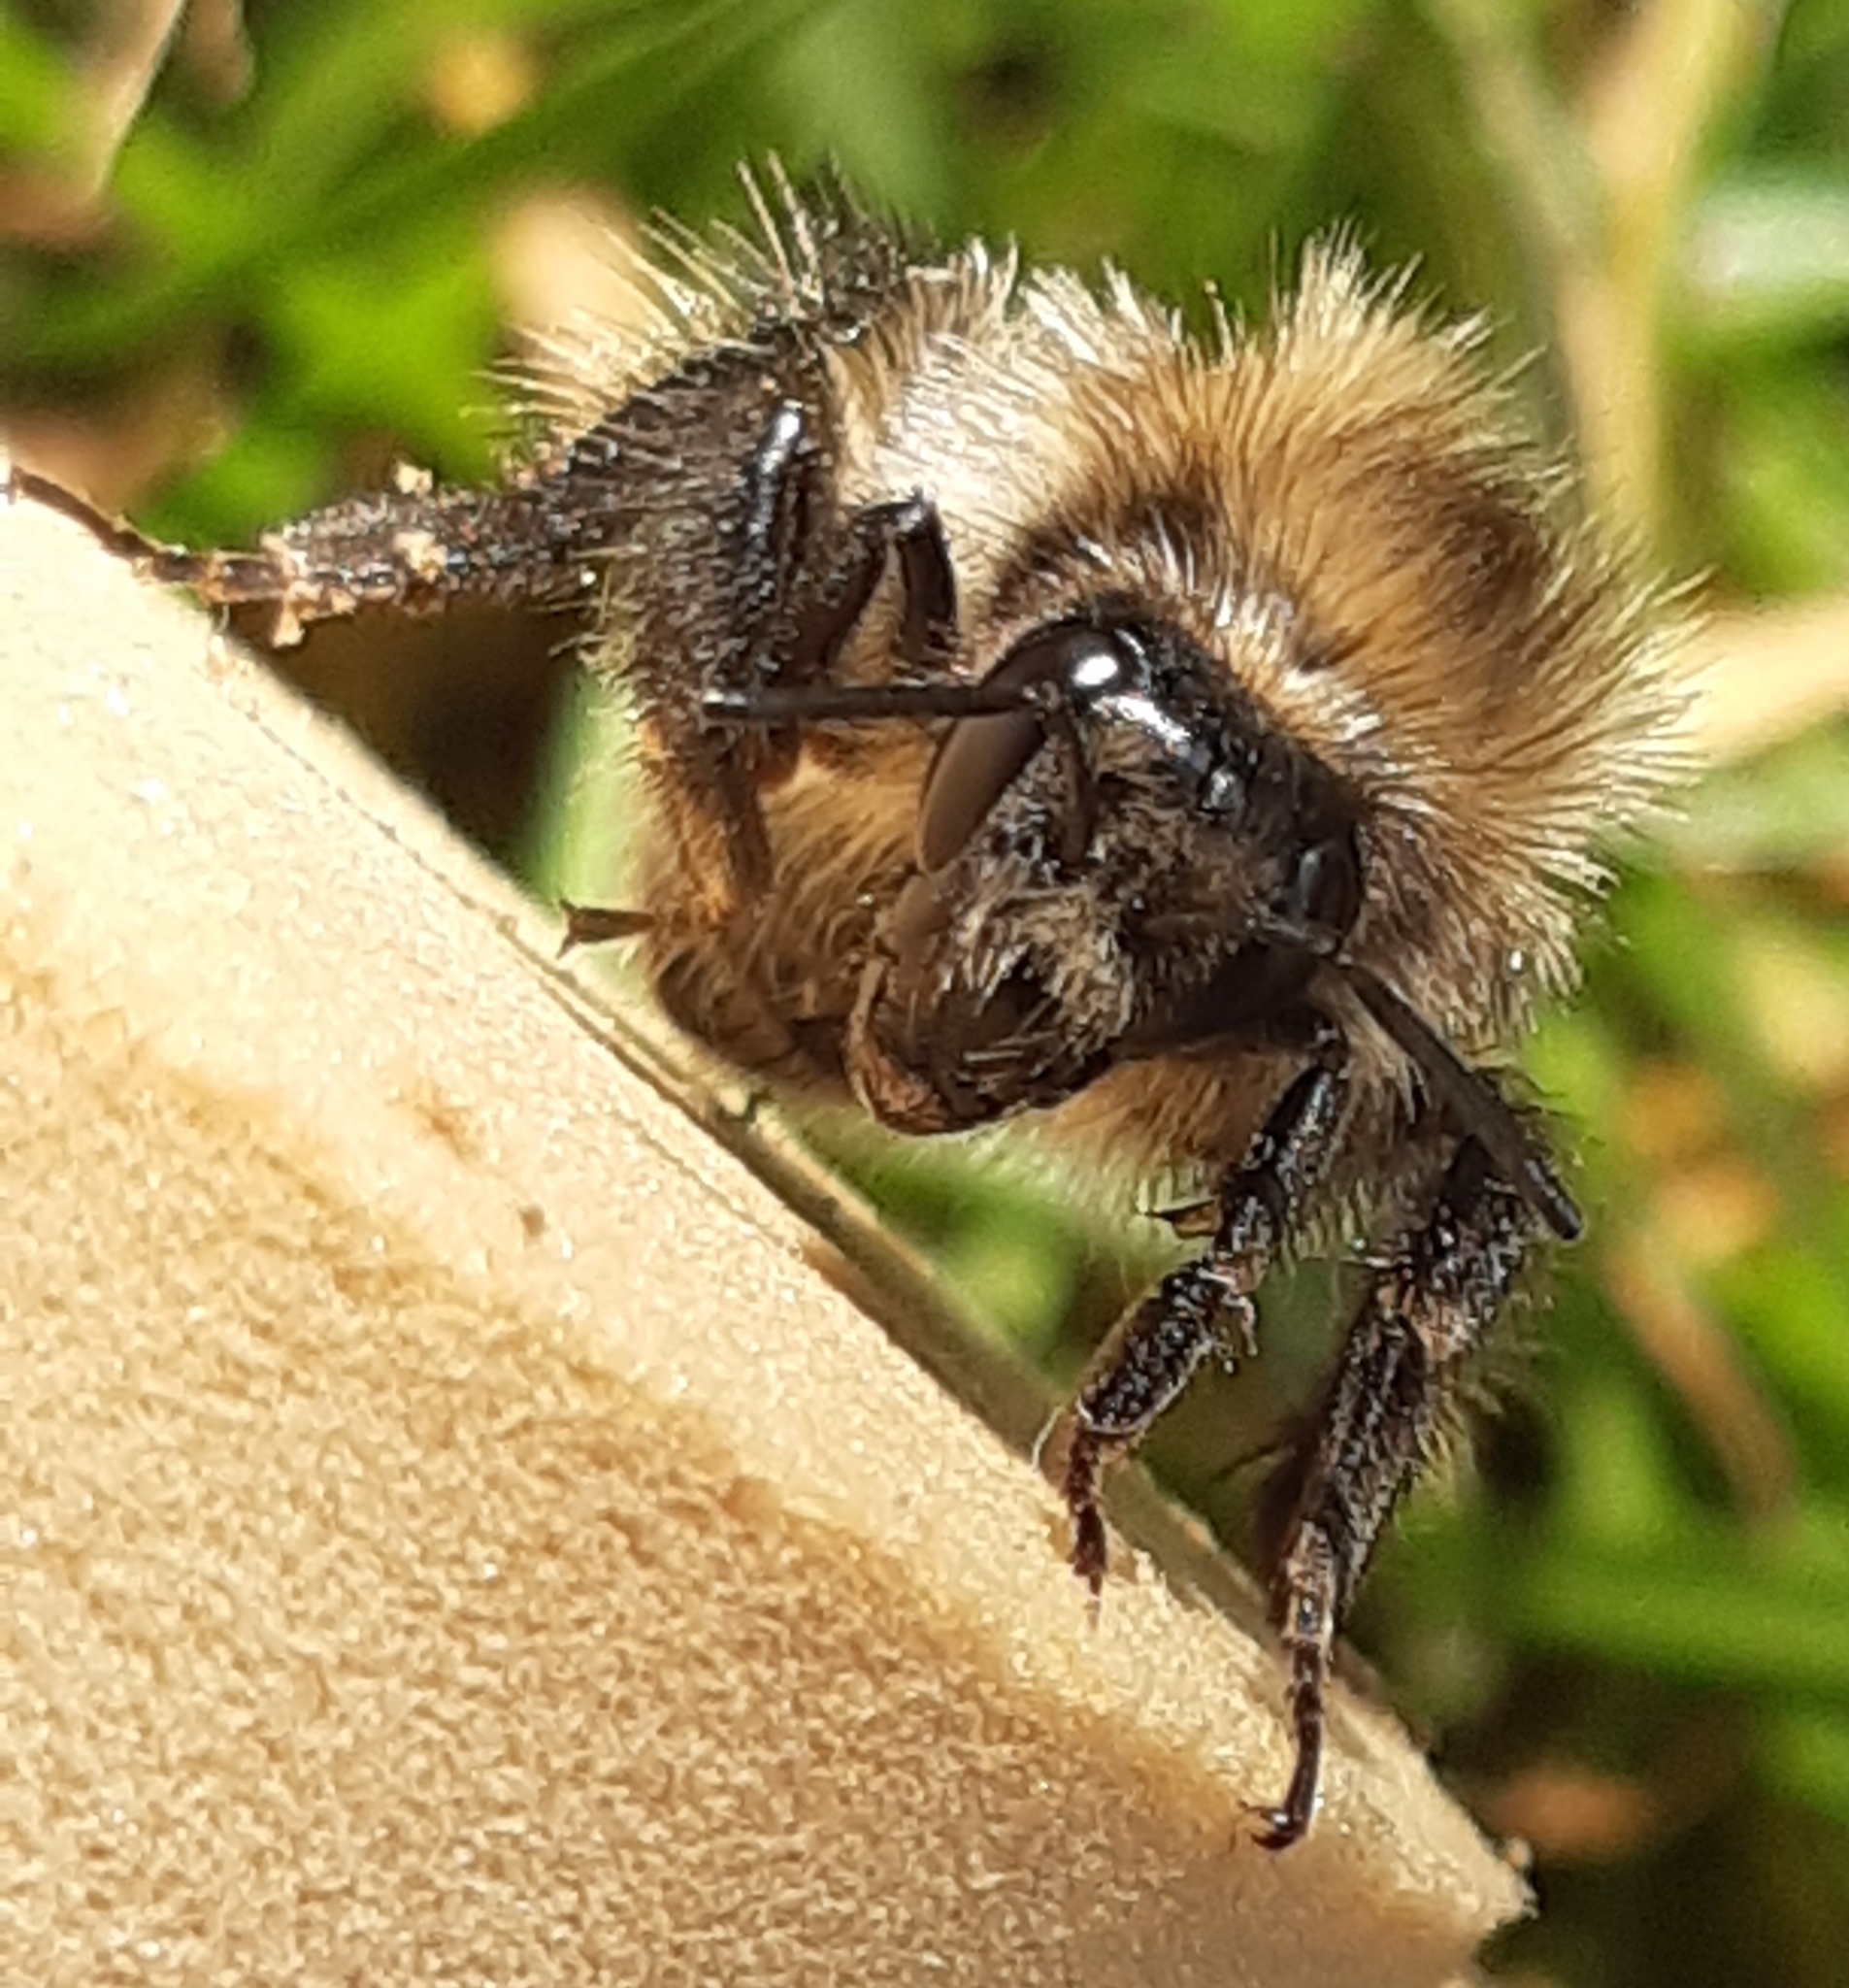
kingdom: Animalia
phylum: Arthropoda
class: Insecta
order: Hymenoptera
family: Apidae
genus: Bombus
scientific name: Bombus pascuorum
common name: Common carder bee
